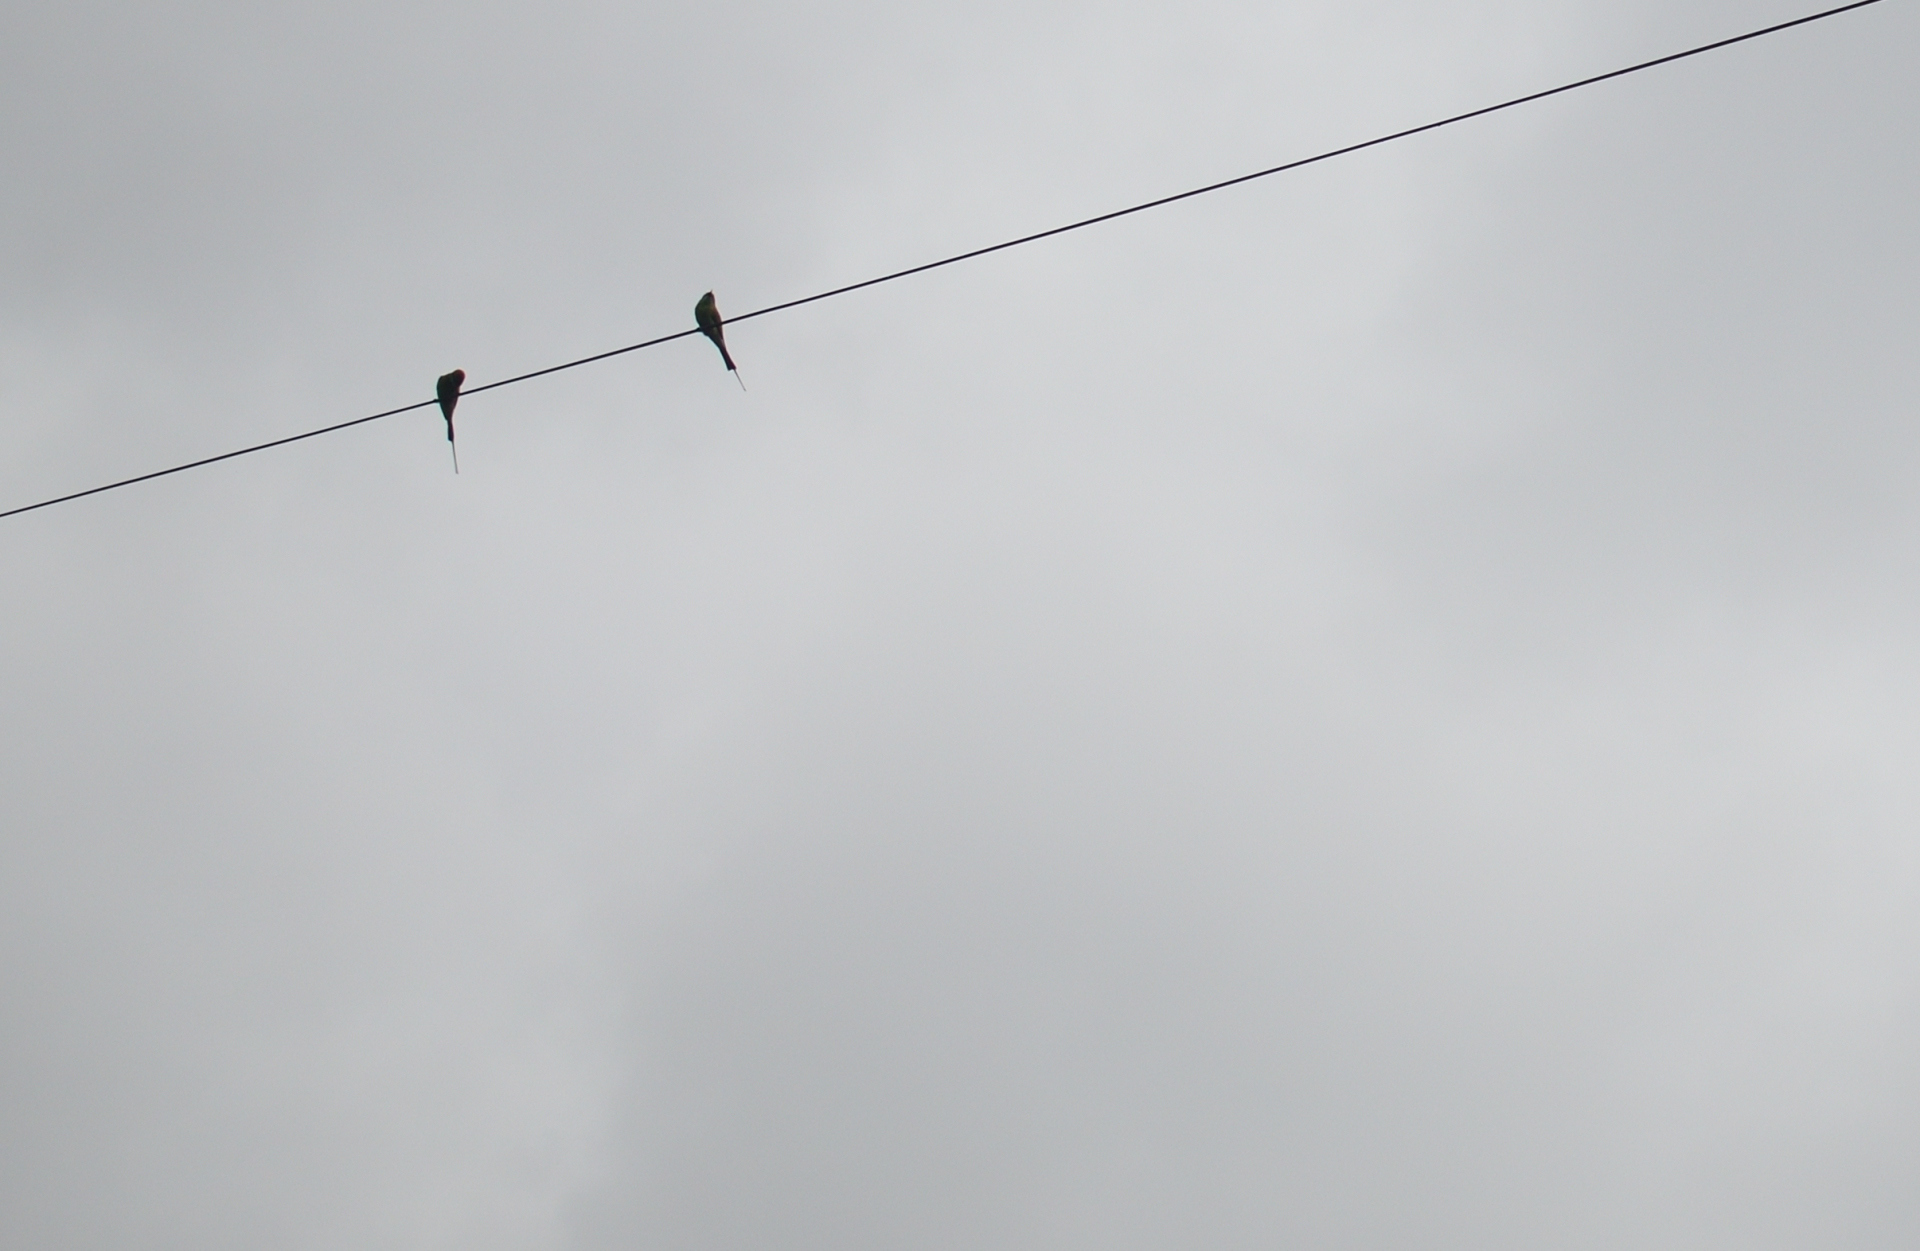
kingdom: Animalia
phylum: Chordata
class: Aves
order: Coraciiformes
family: Meropidae
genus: Merops
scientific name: Merops orientalis
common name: Green bee-eater
